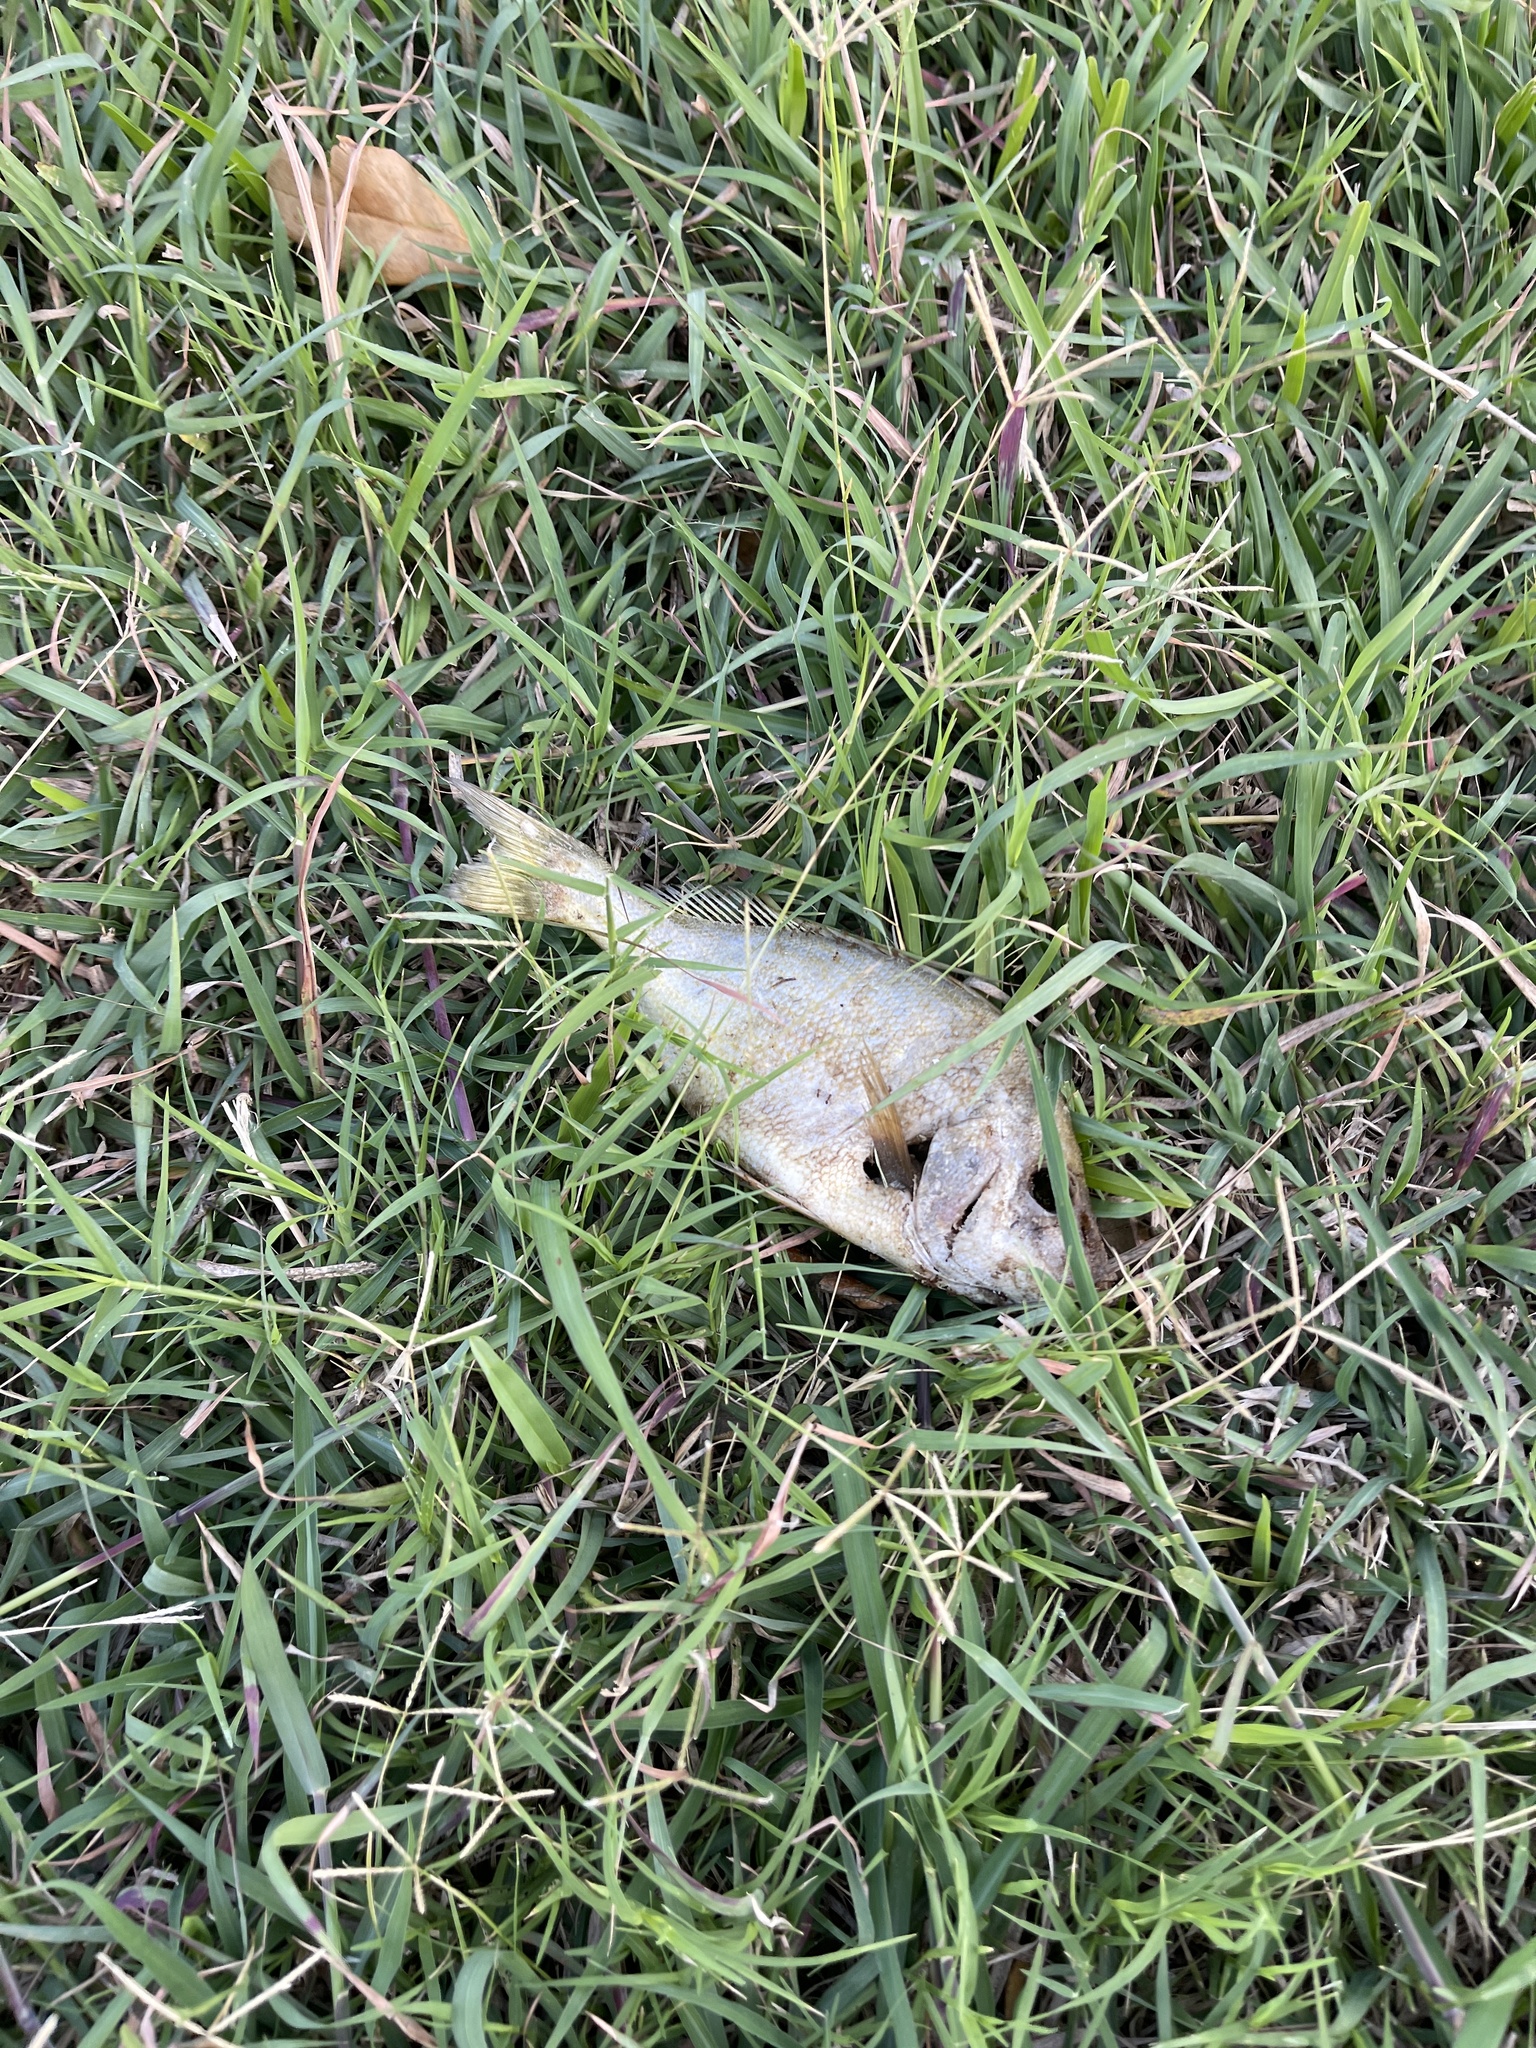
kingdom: Animalia
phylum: Chordata
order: Perciformes
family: Haemulidae
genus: Orthopristis
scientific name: Orthopristis chrysoptera
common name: Pigfish
